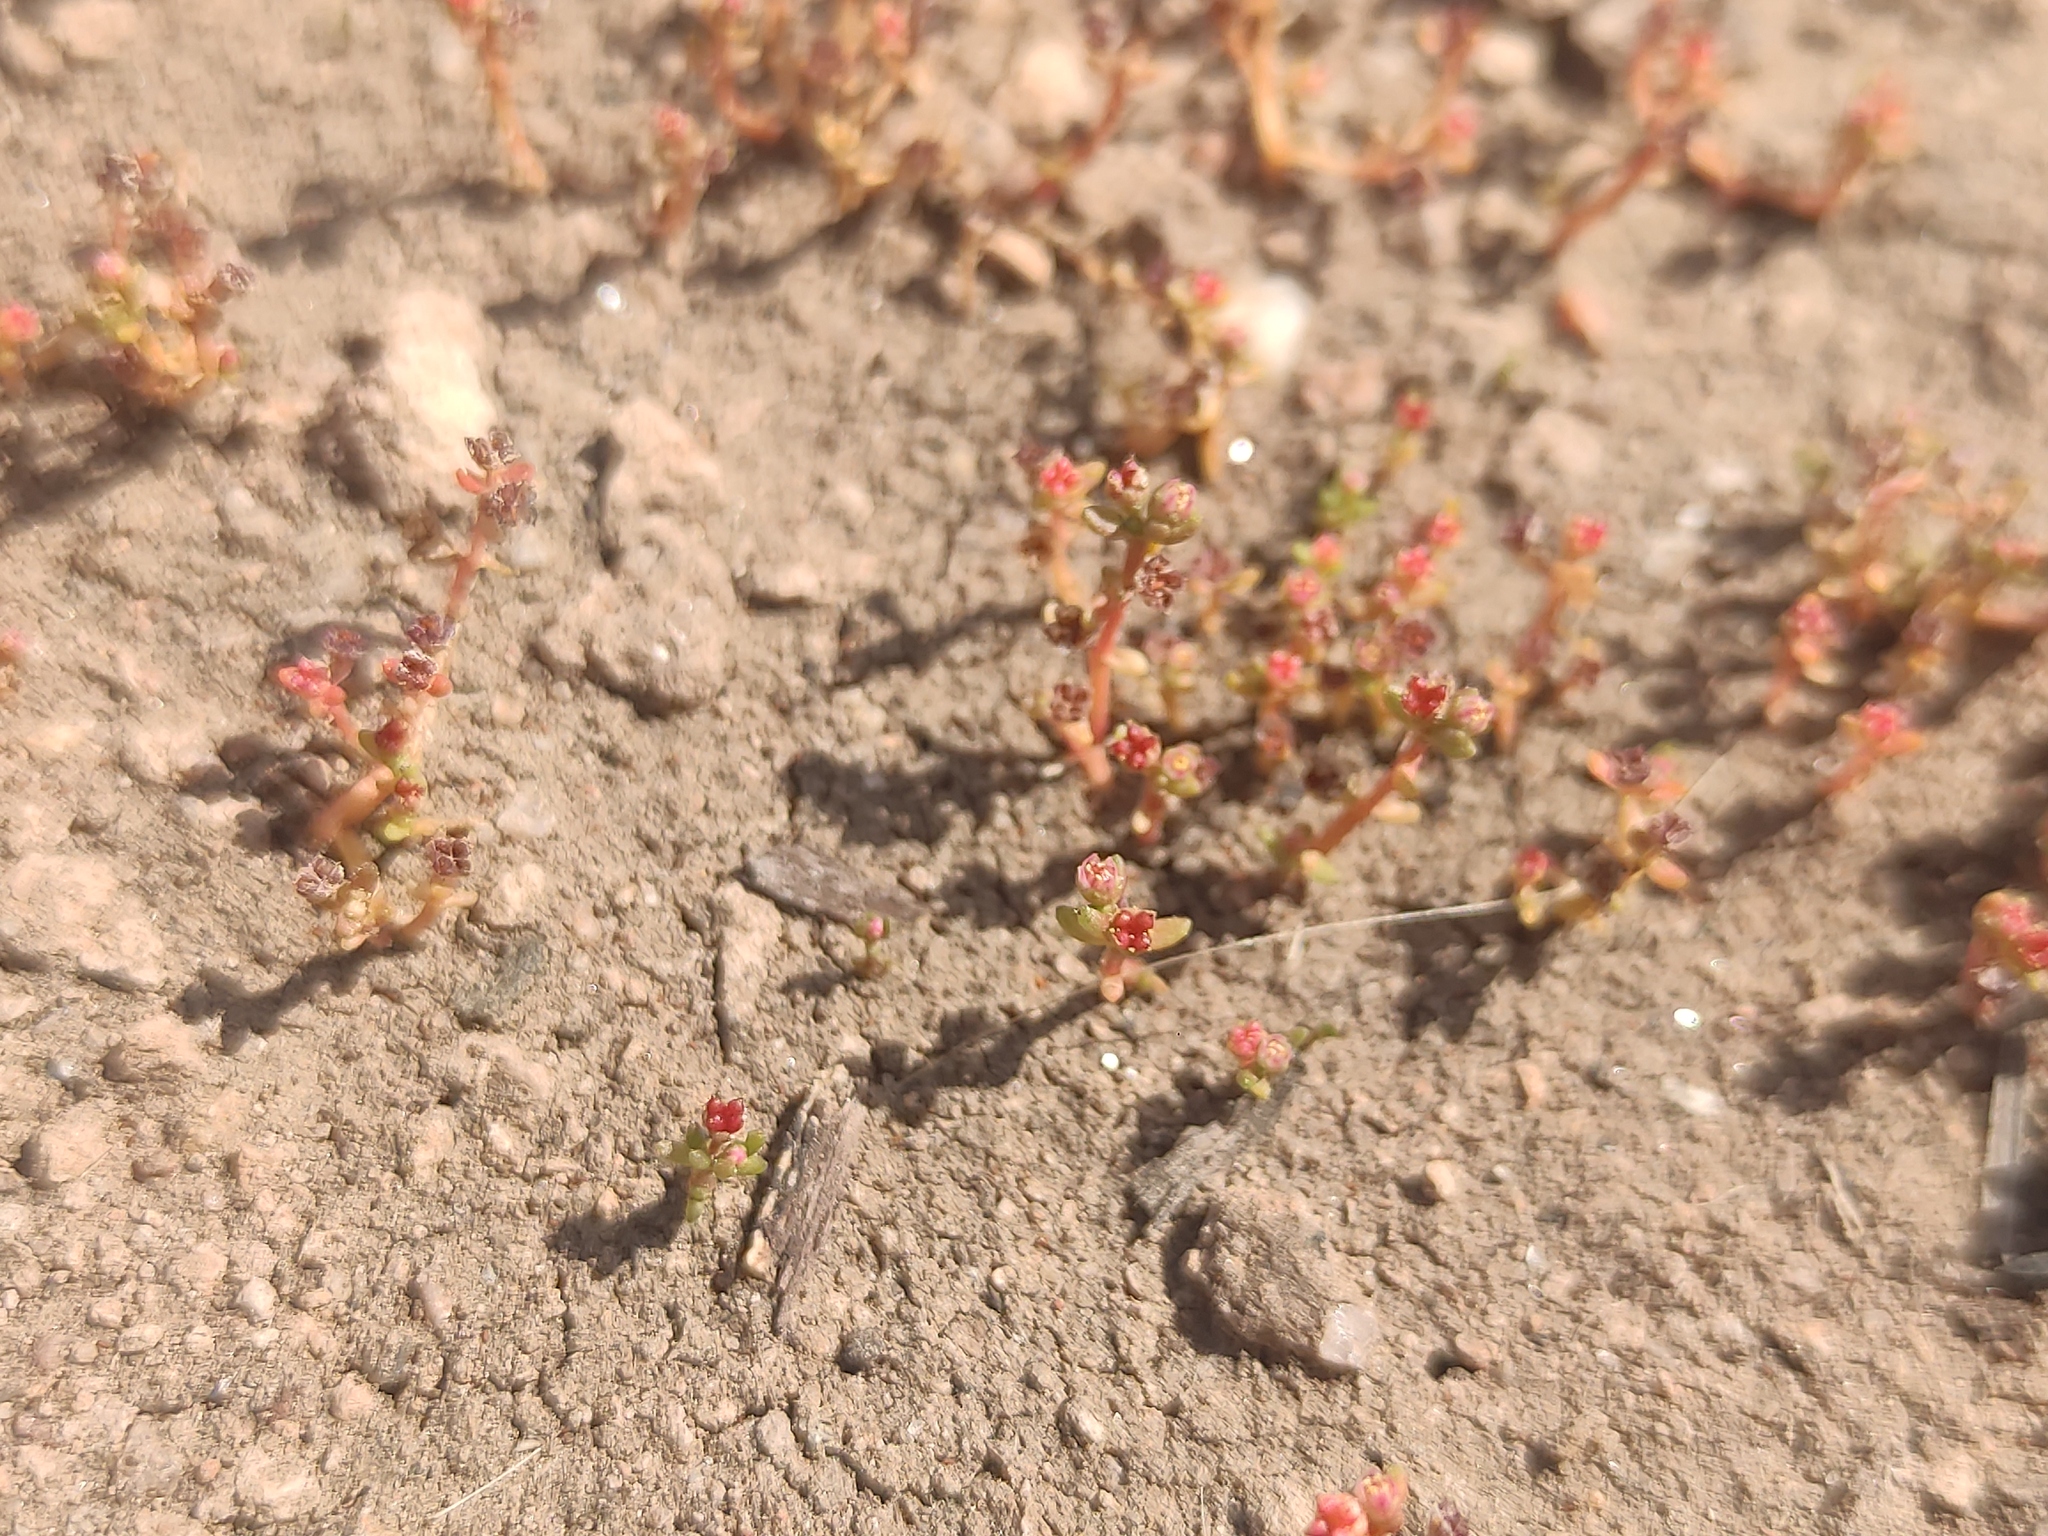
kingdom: Plantae
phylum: Tracheophyta
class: Magnoliopsida
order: Saxifragales
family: Crassulaceae
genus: Crassula
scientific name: Crassula vaillantii
